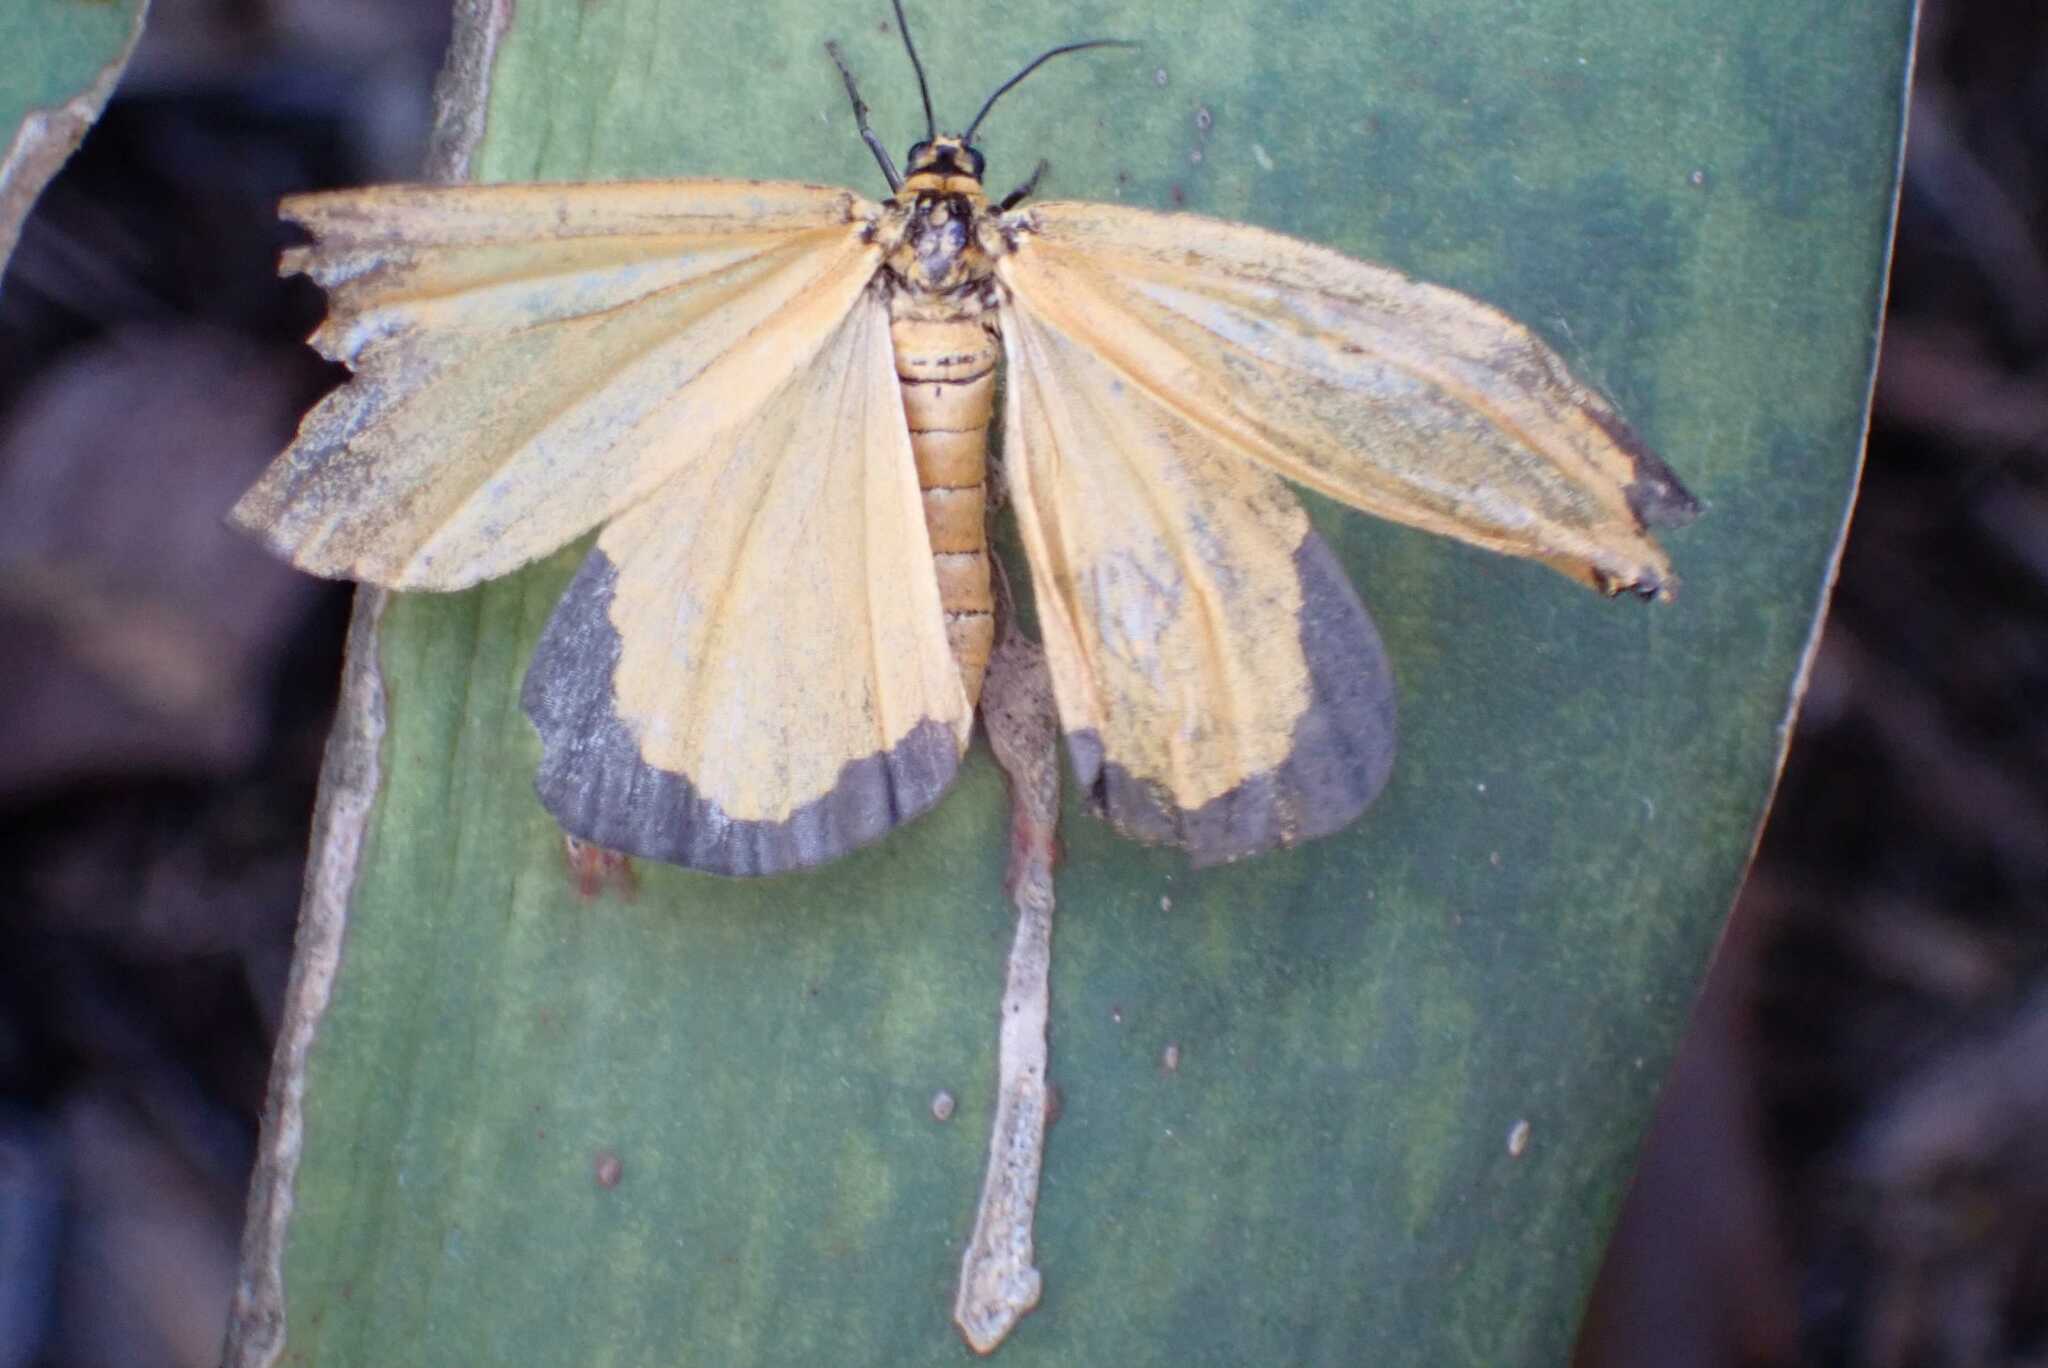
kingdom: Animalia
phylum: Arthropoda
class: Insecta
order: Lepidoptera
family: Geometridae
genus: Zerenopsis
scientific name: Zerenopsis moi
